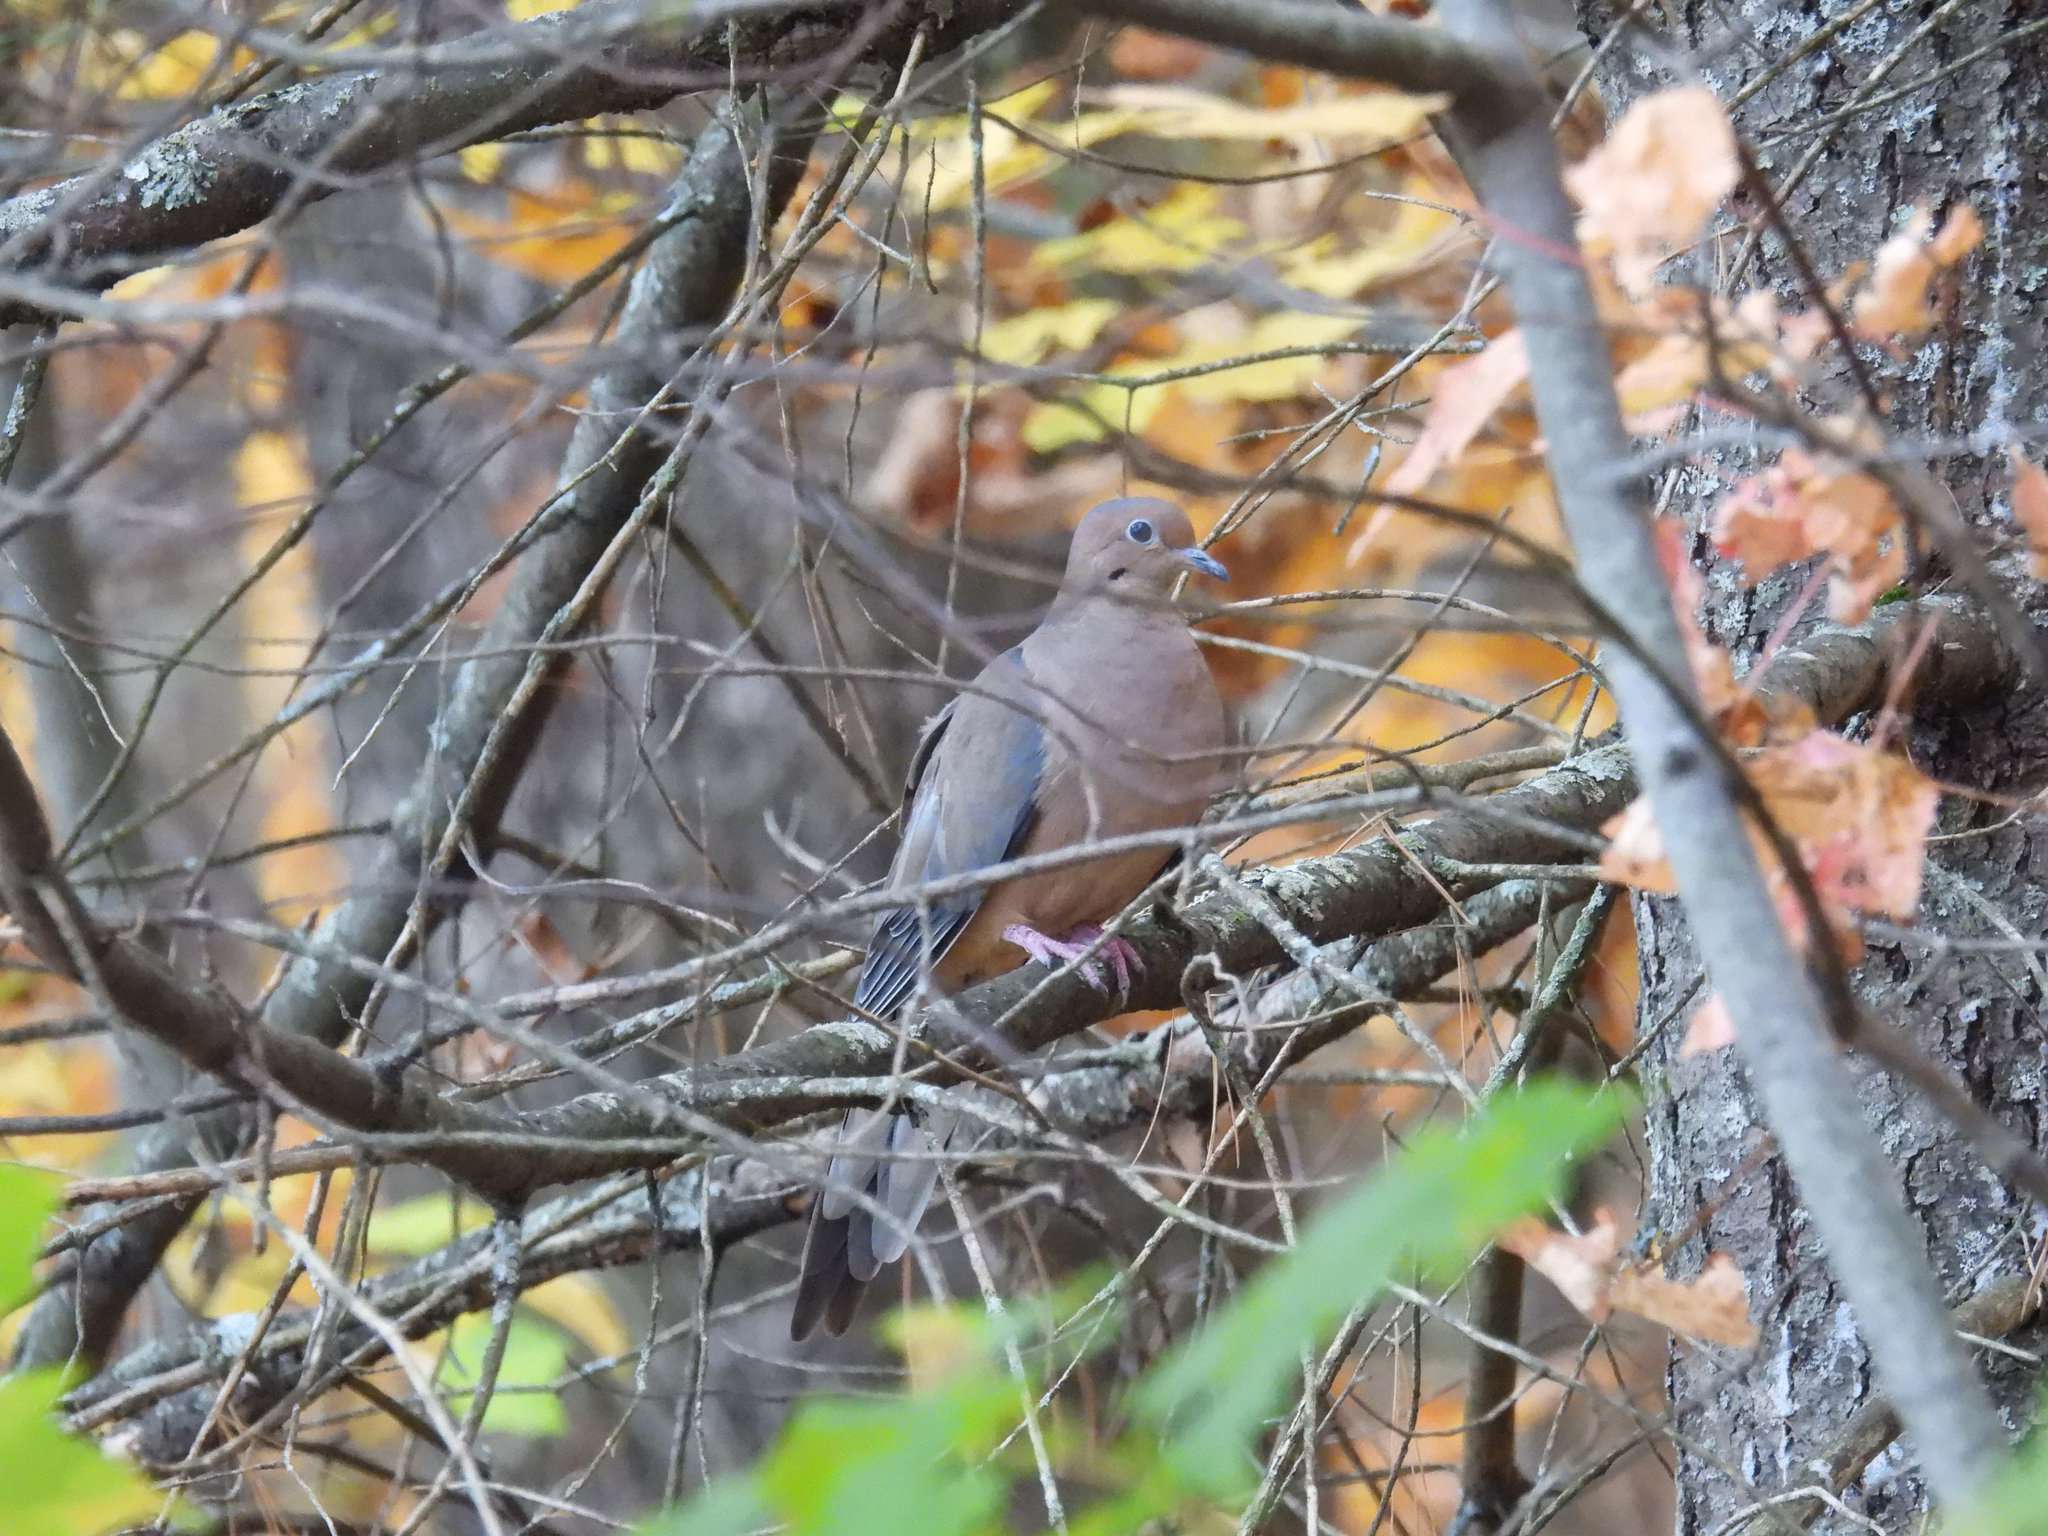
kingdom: Animalia
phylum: Chordata
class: Aves
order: Columbiformes
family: Columbidae
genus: Zenaida
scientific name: Zenaida macroura
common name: Mourning dove
